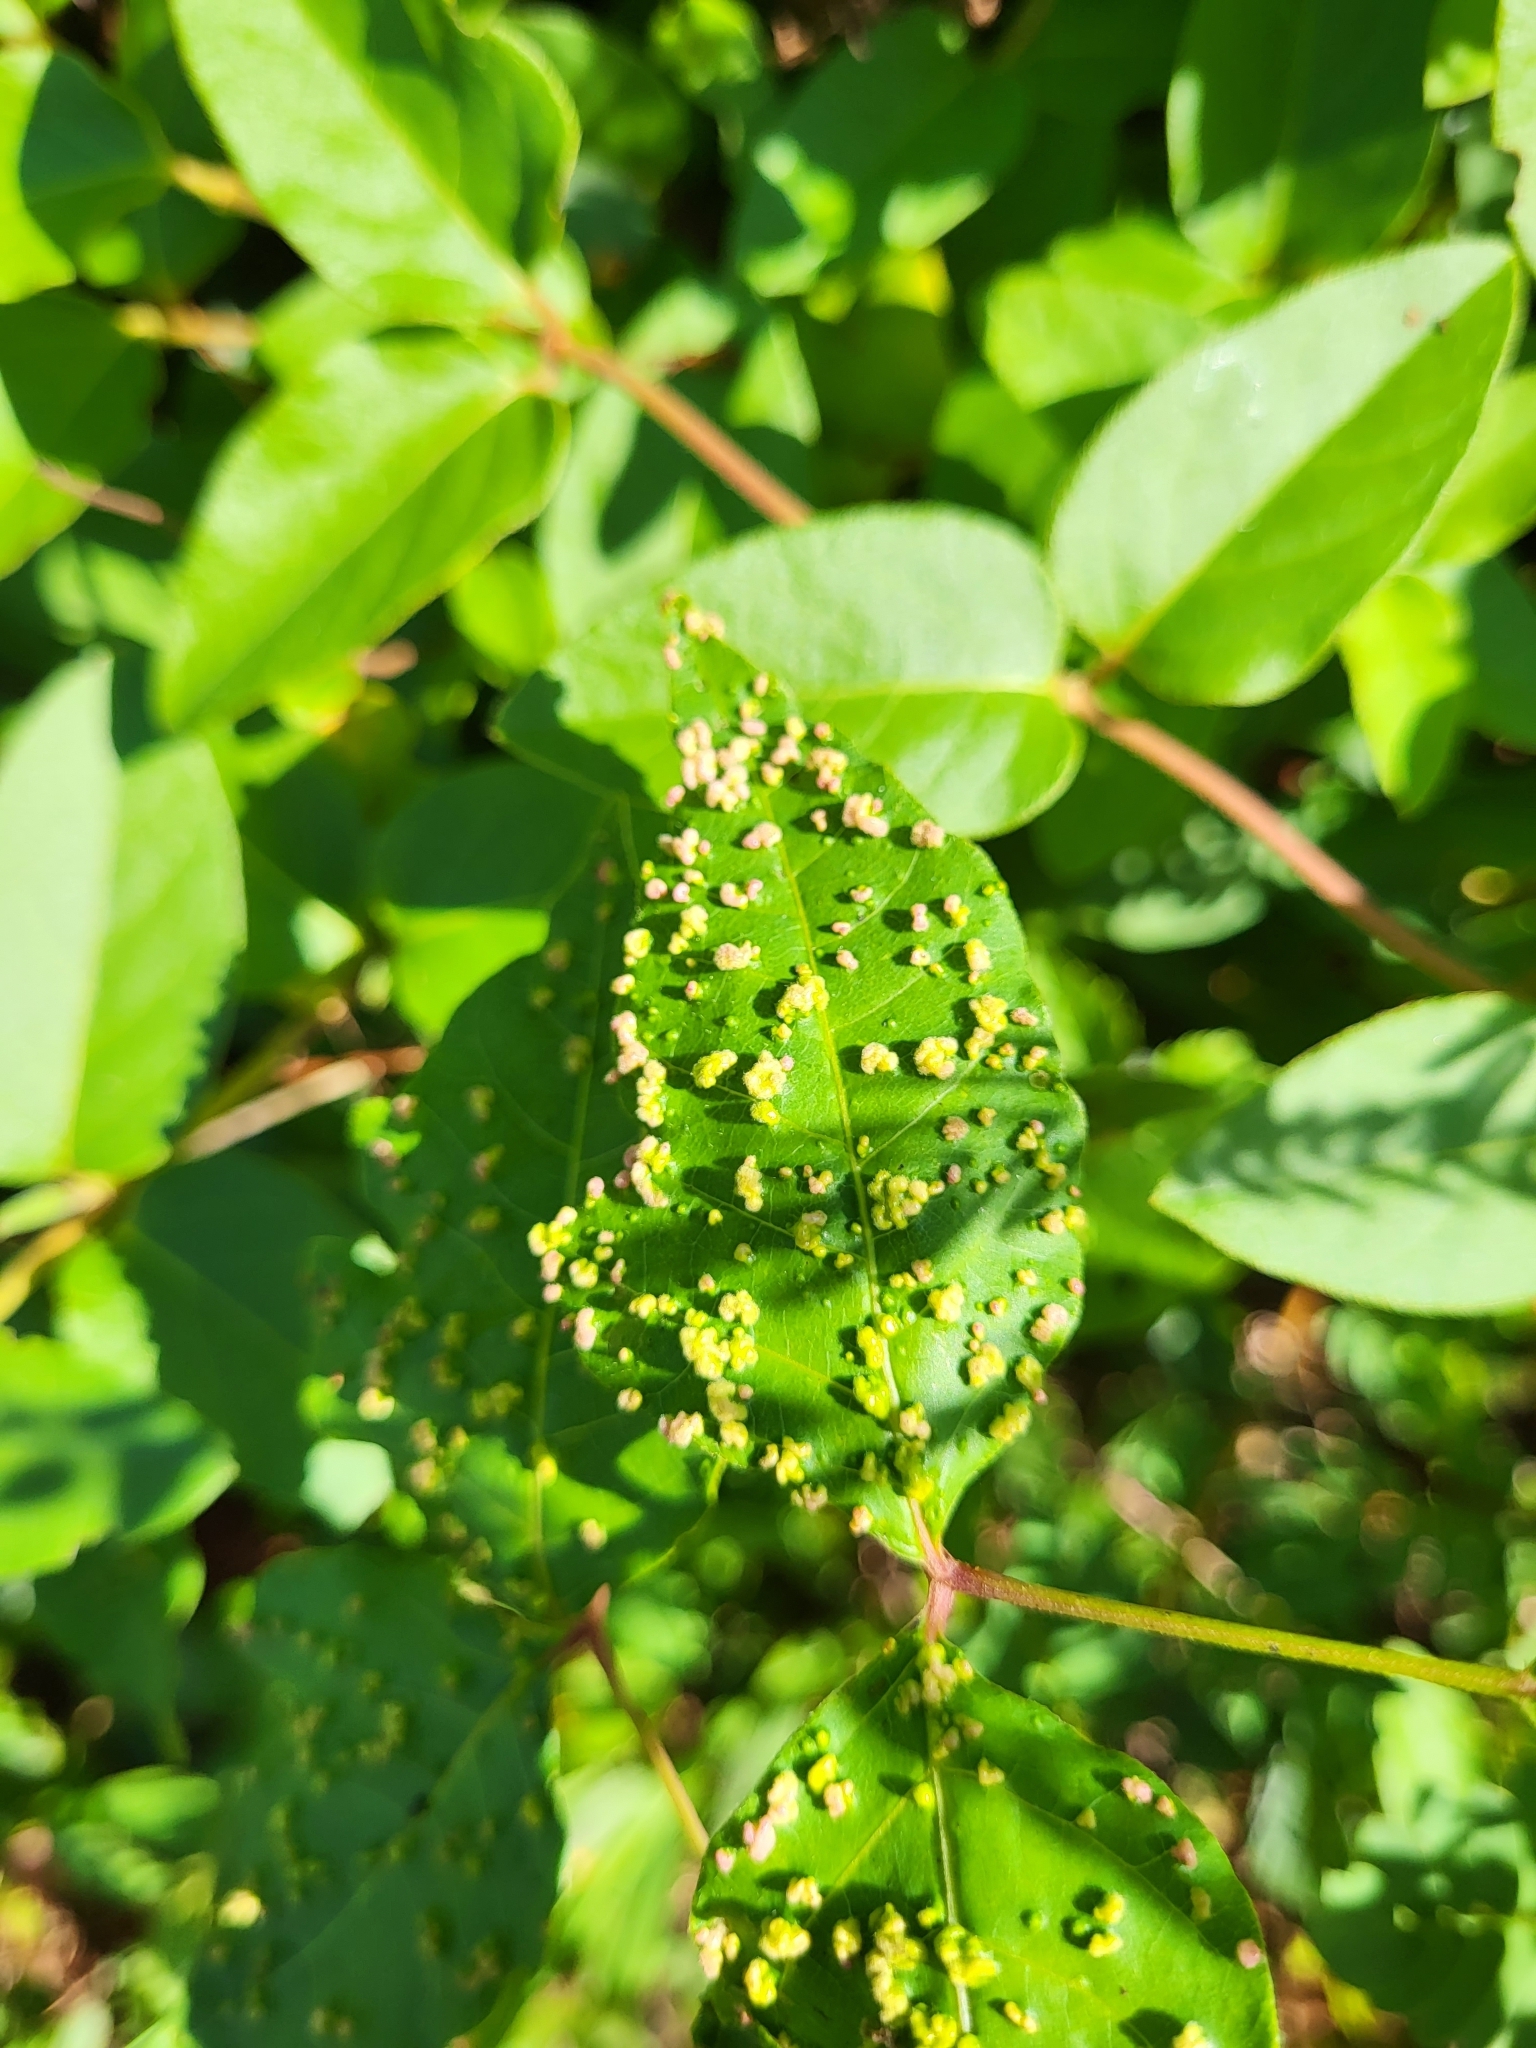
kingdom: Animalia
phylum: Arthropoda
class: Arachnida
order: Trombidiformes
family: Eriophyidae
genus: Aculops
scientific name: Aculops
